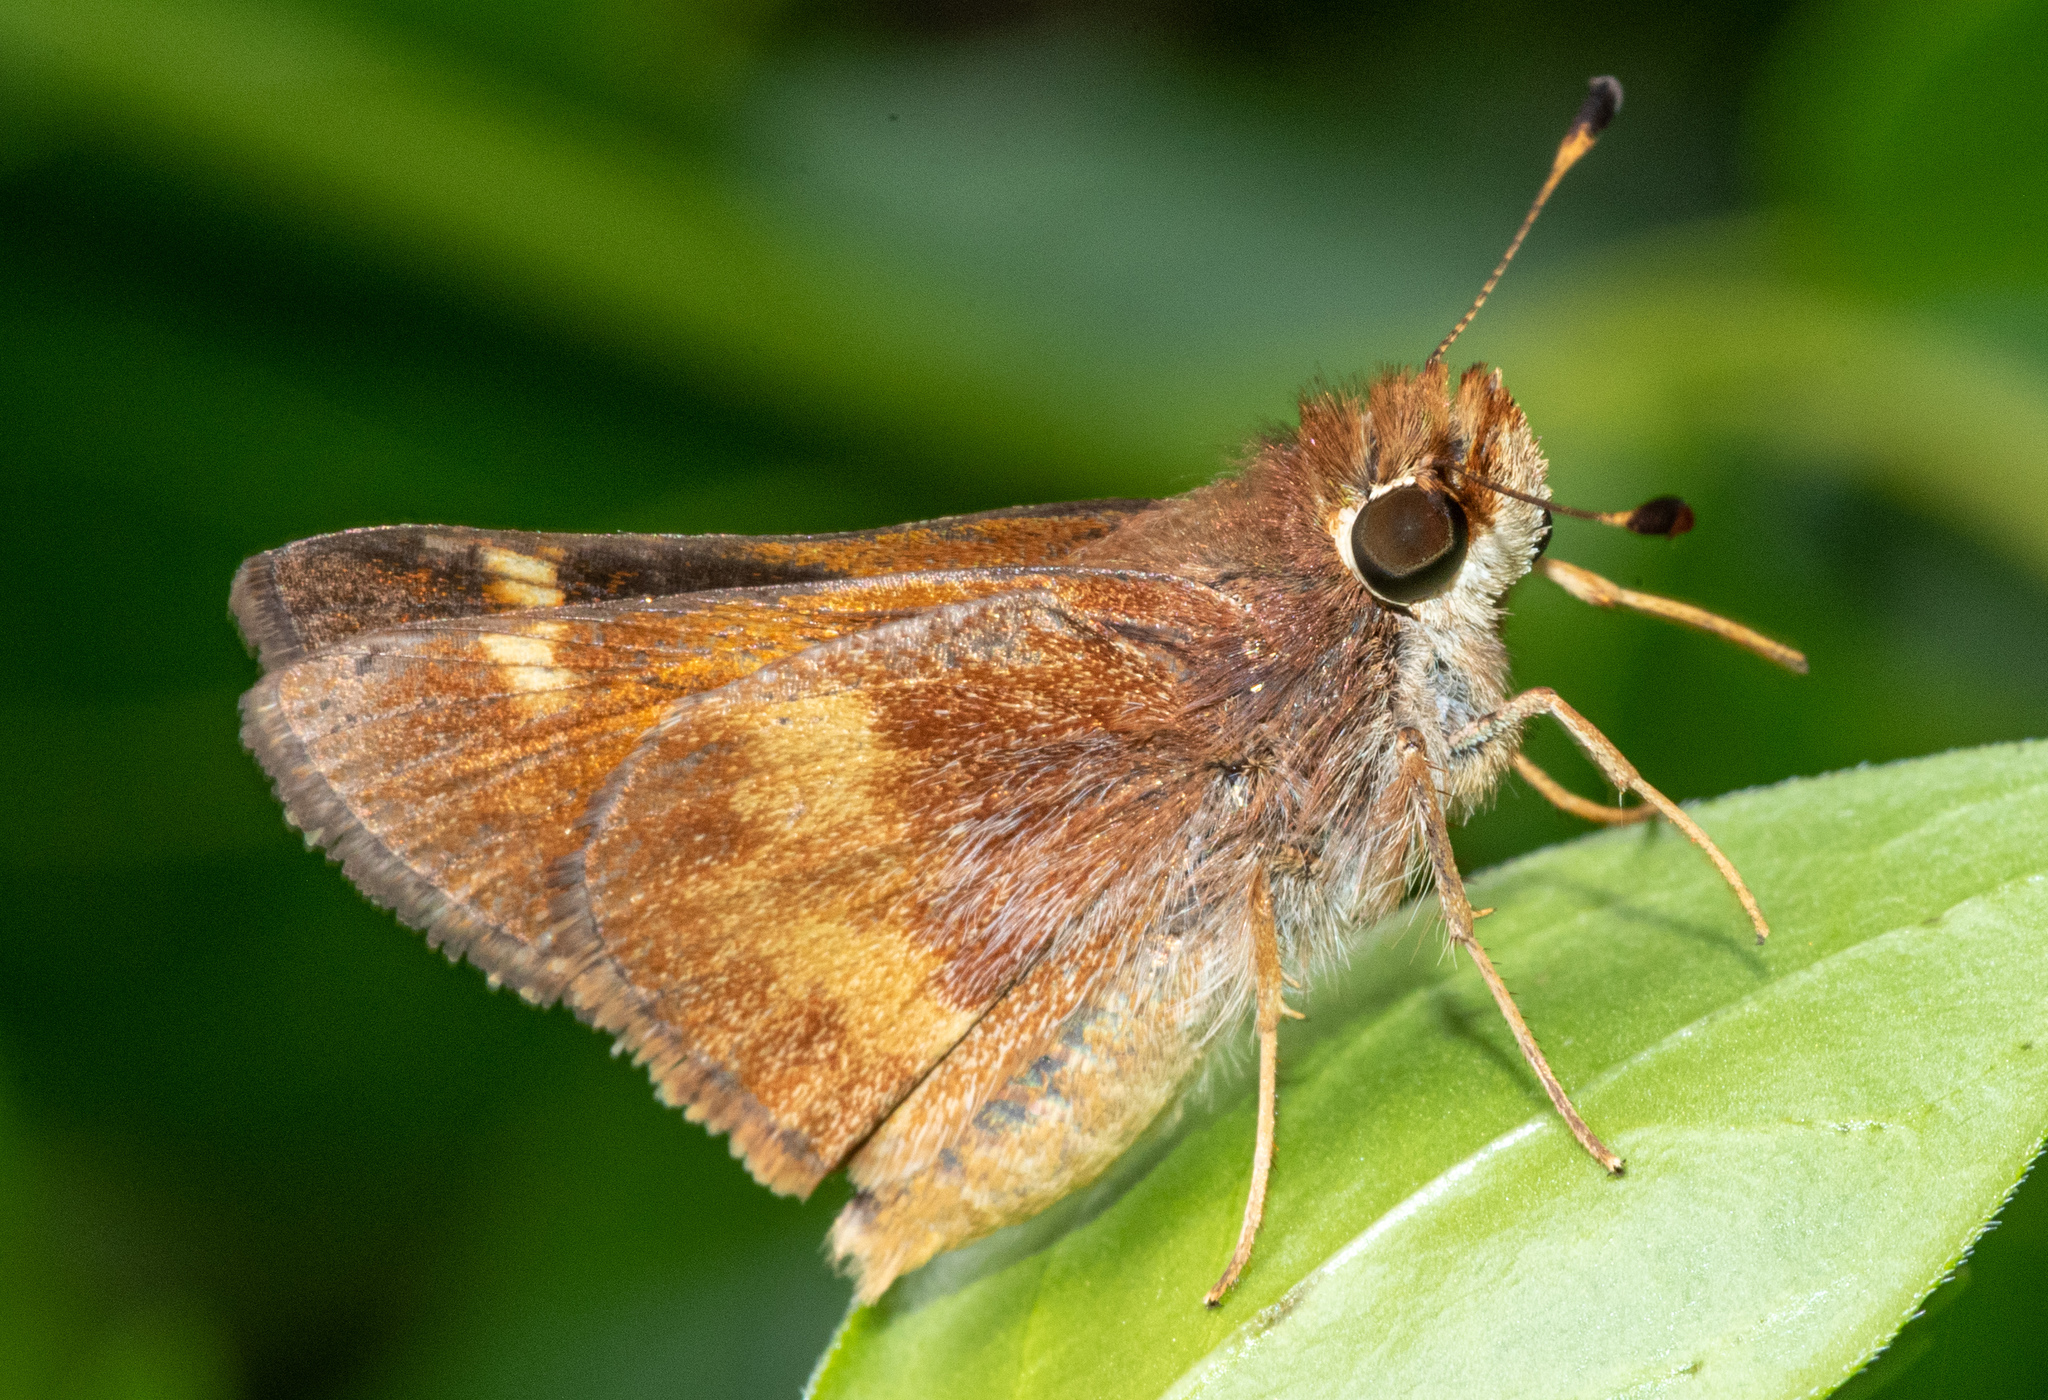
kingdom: Animalia
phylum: Arthropoda
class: Insecta
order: Lepidoptera
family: Hesperiidae
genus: Lon
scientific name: Lon melane
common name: Umber skipper
